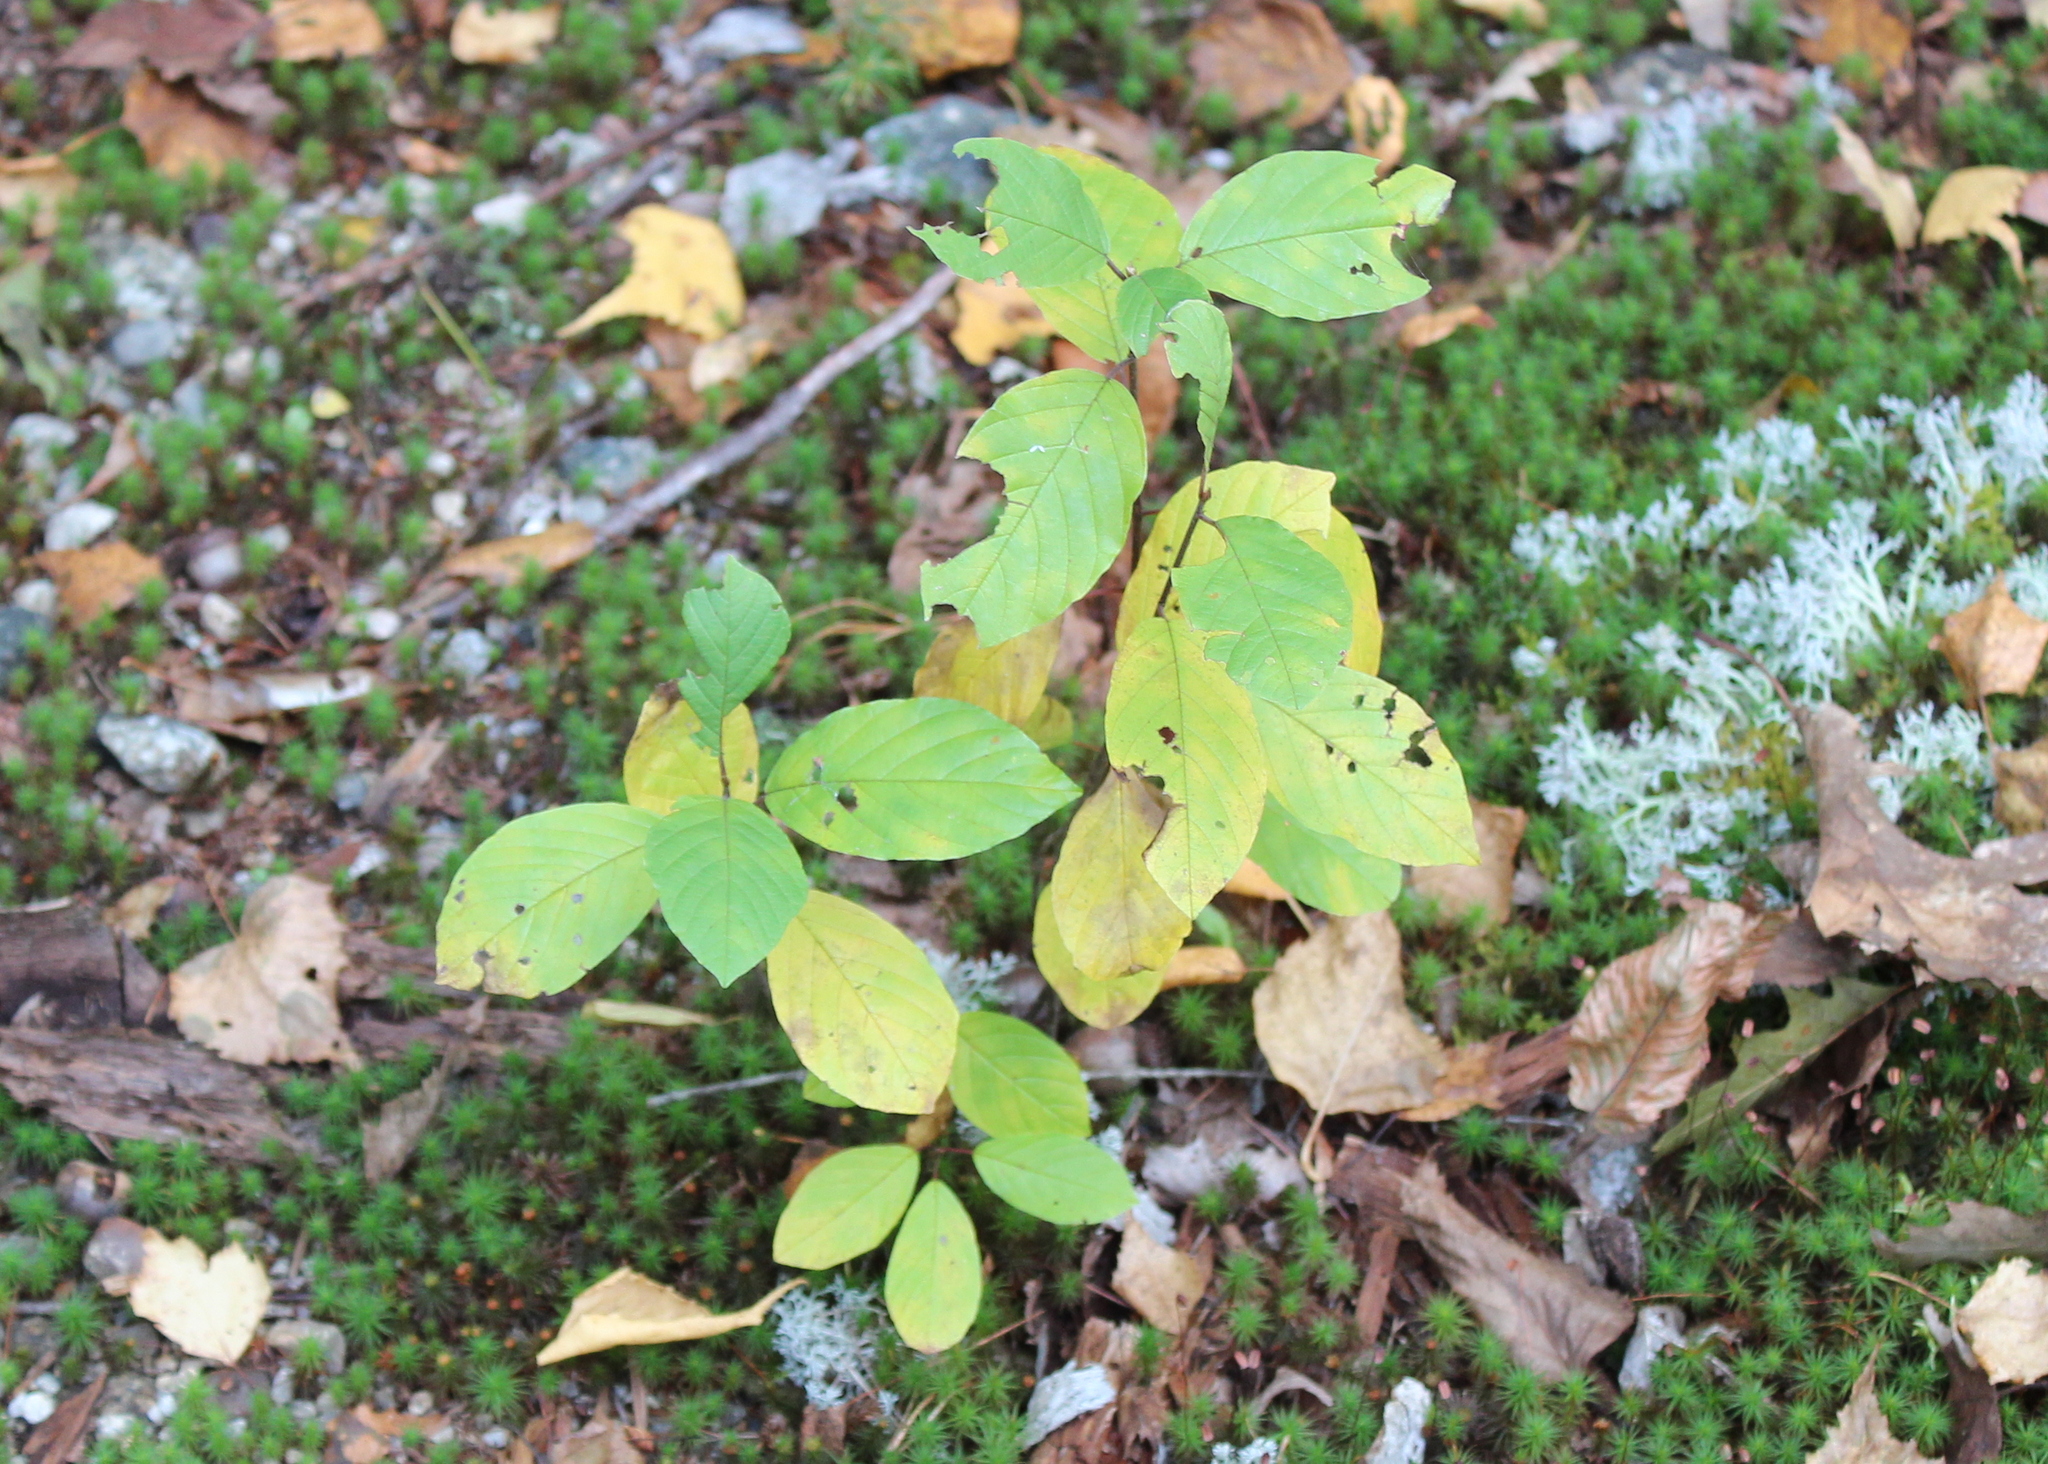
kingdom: Plantae
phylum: Tracheophyta
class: Magnoliopsida
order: Rosales
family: Rhamnaceae
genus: Frangula
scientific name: Frangula alnus
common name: Alder buckthorn
